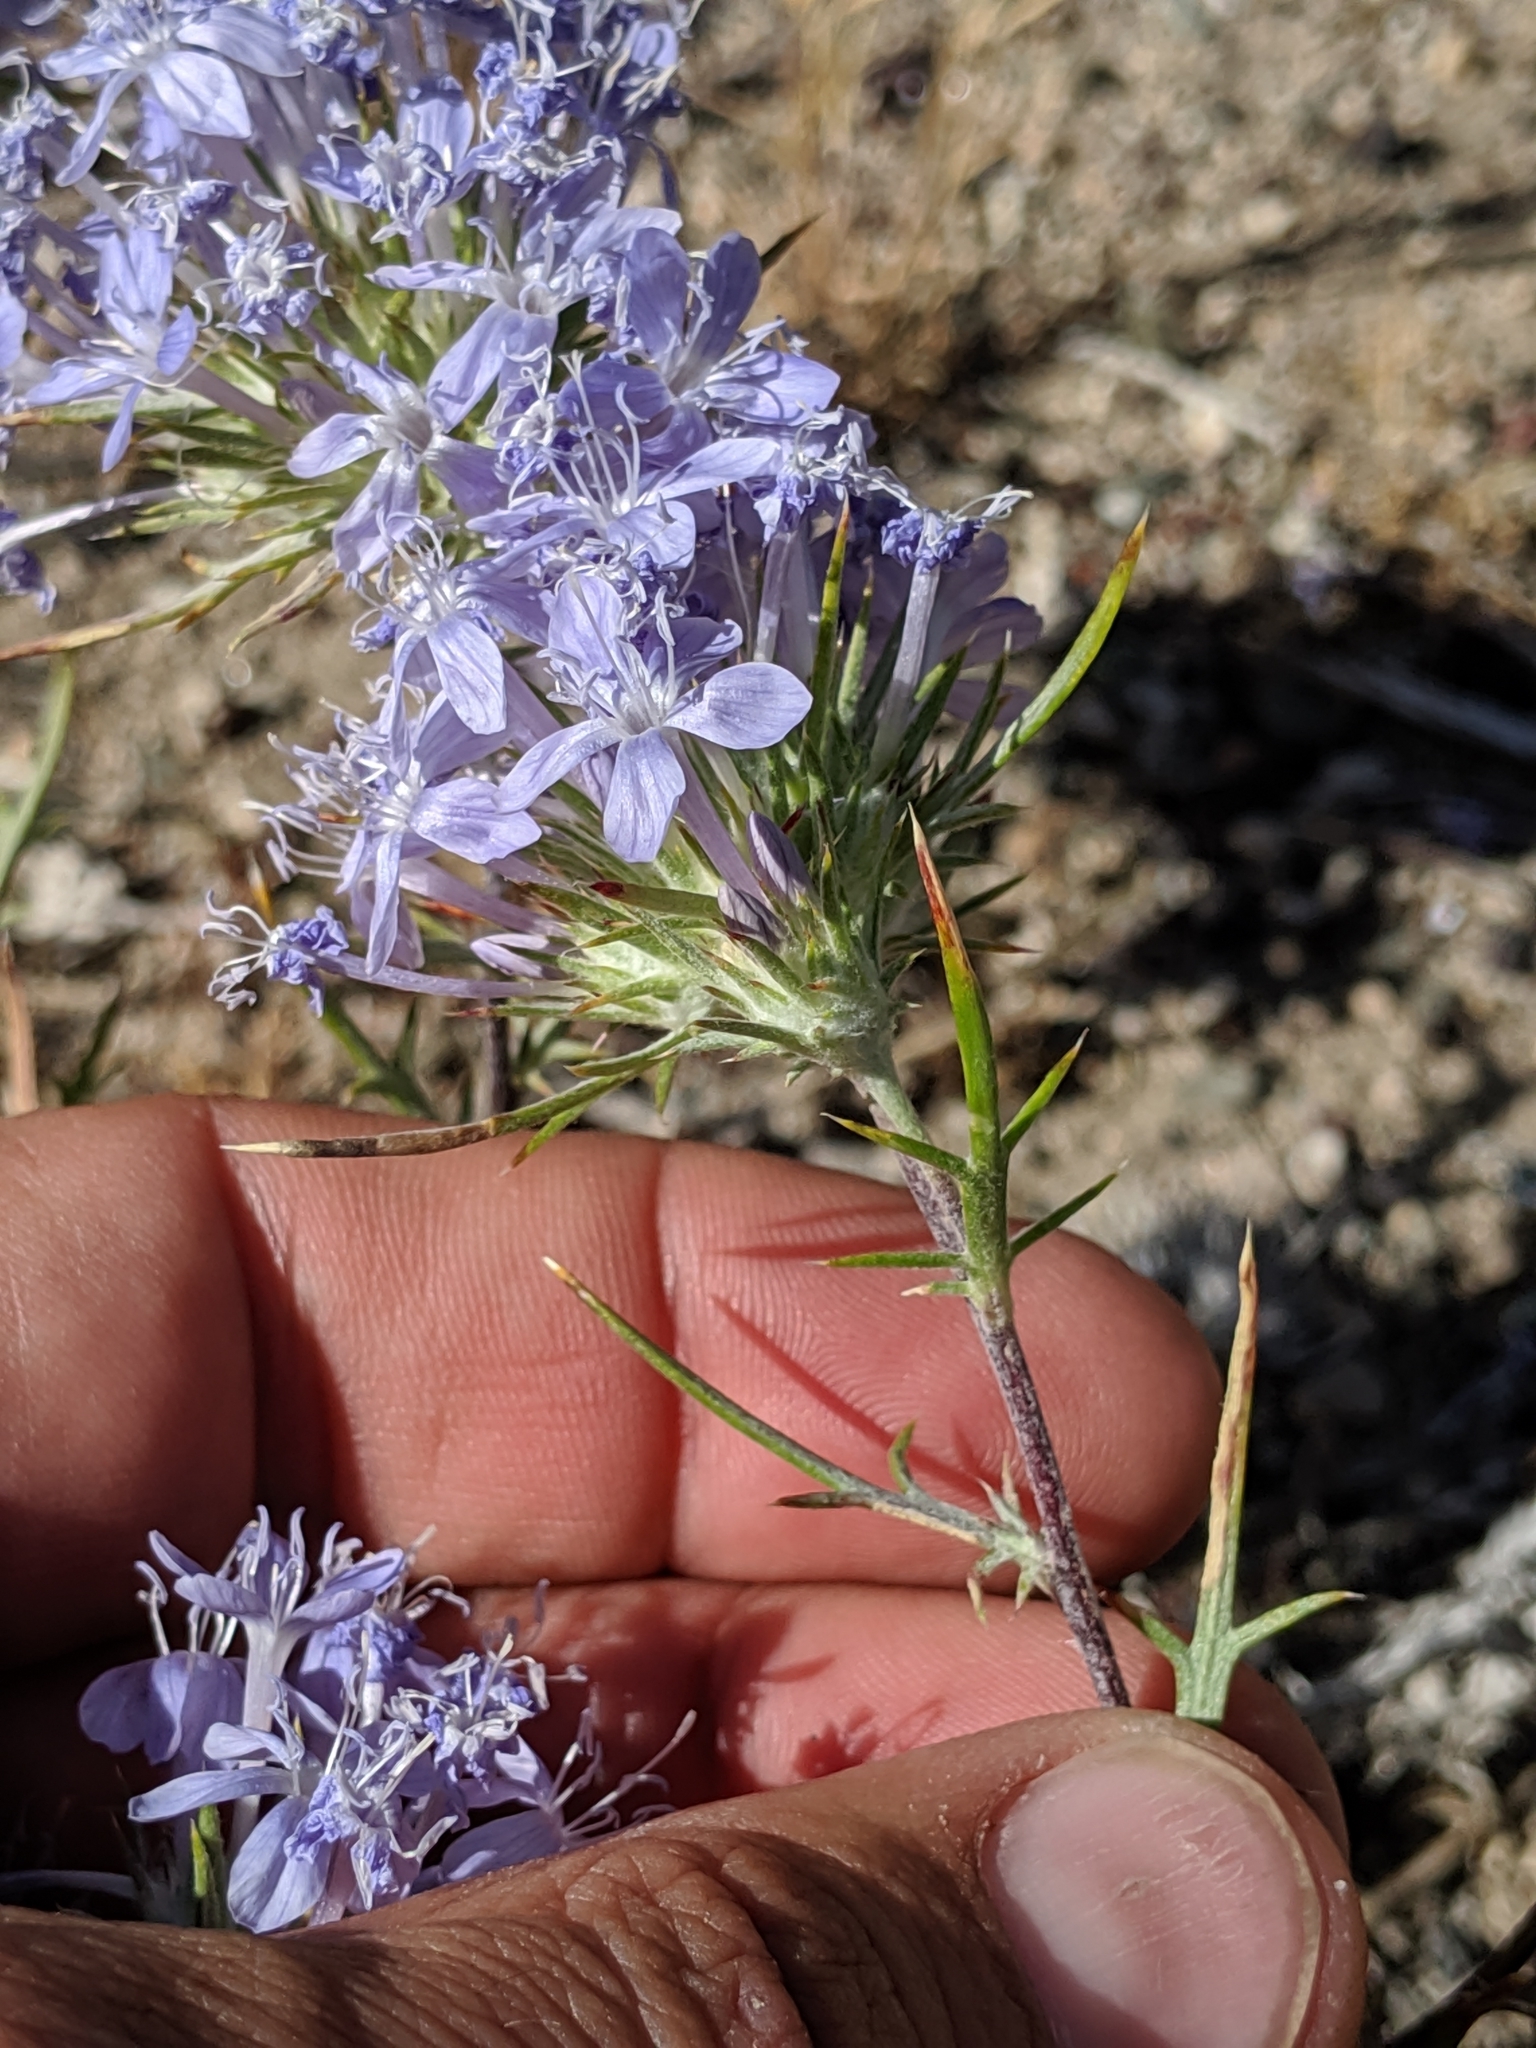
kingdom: Plantae
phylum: Tracheophyta
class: Magnoliopsida
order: Ericales
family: Polemoniaceae
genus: Eriastrum
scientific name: Eriastrum densifolium
